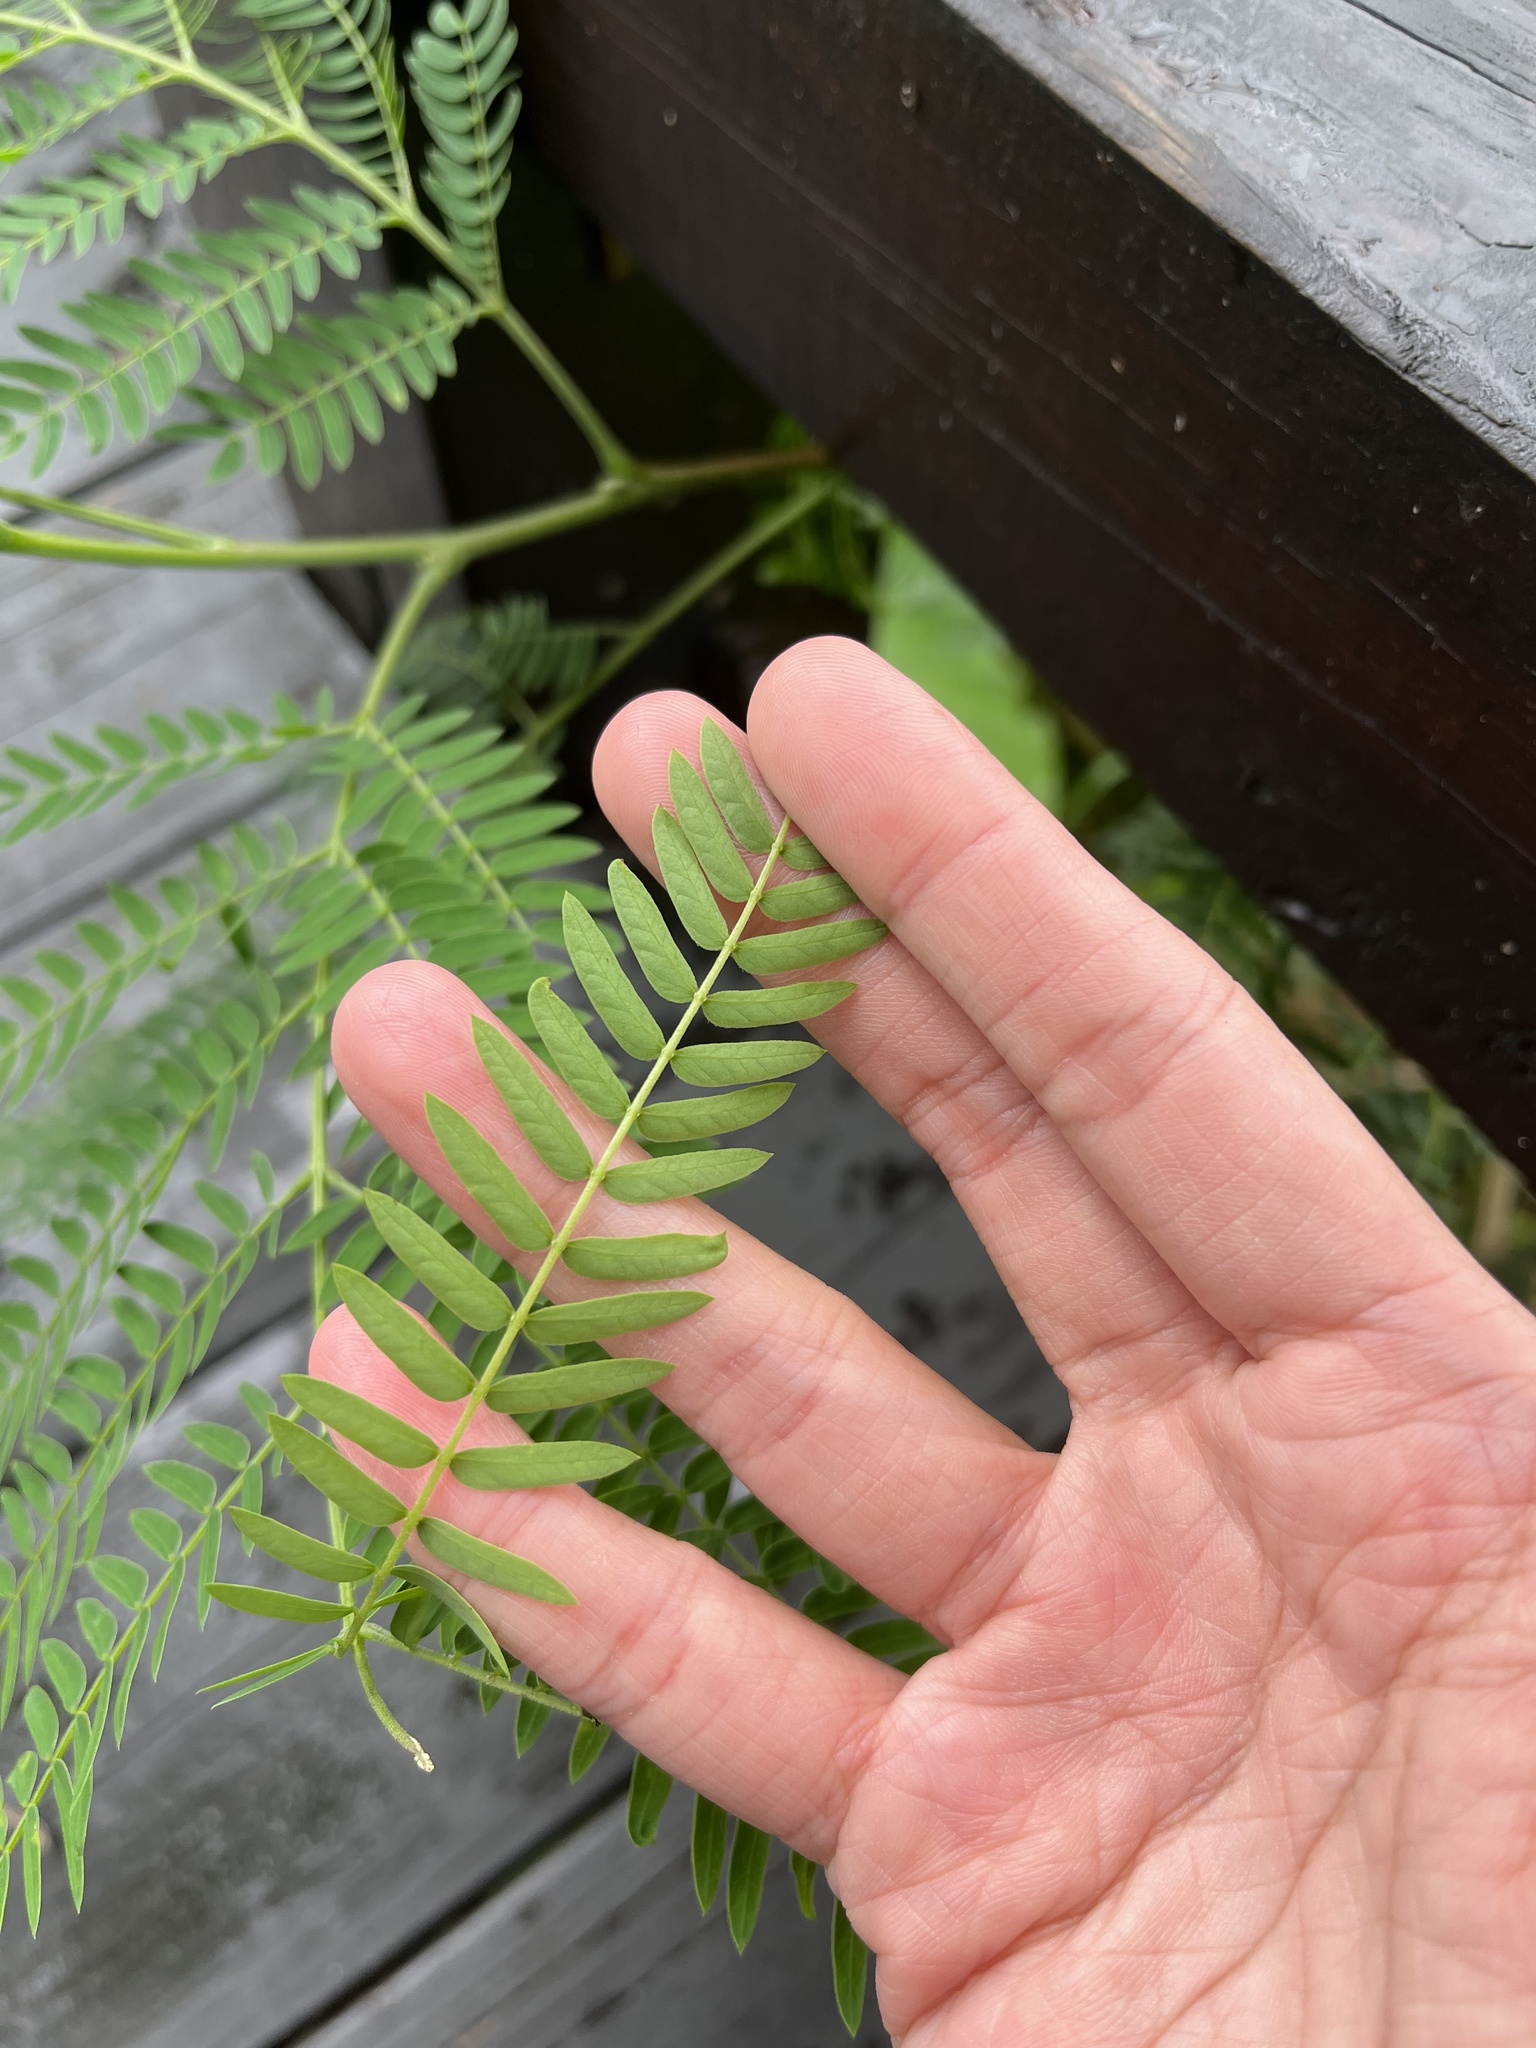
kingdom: Plantae
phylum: Tracheophyta
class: Magnoliopsida
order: Fabales
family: Fabaceae
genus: Leucaena
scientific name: Leucaena leucocephala
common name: White leadtree
